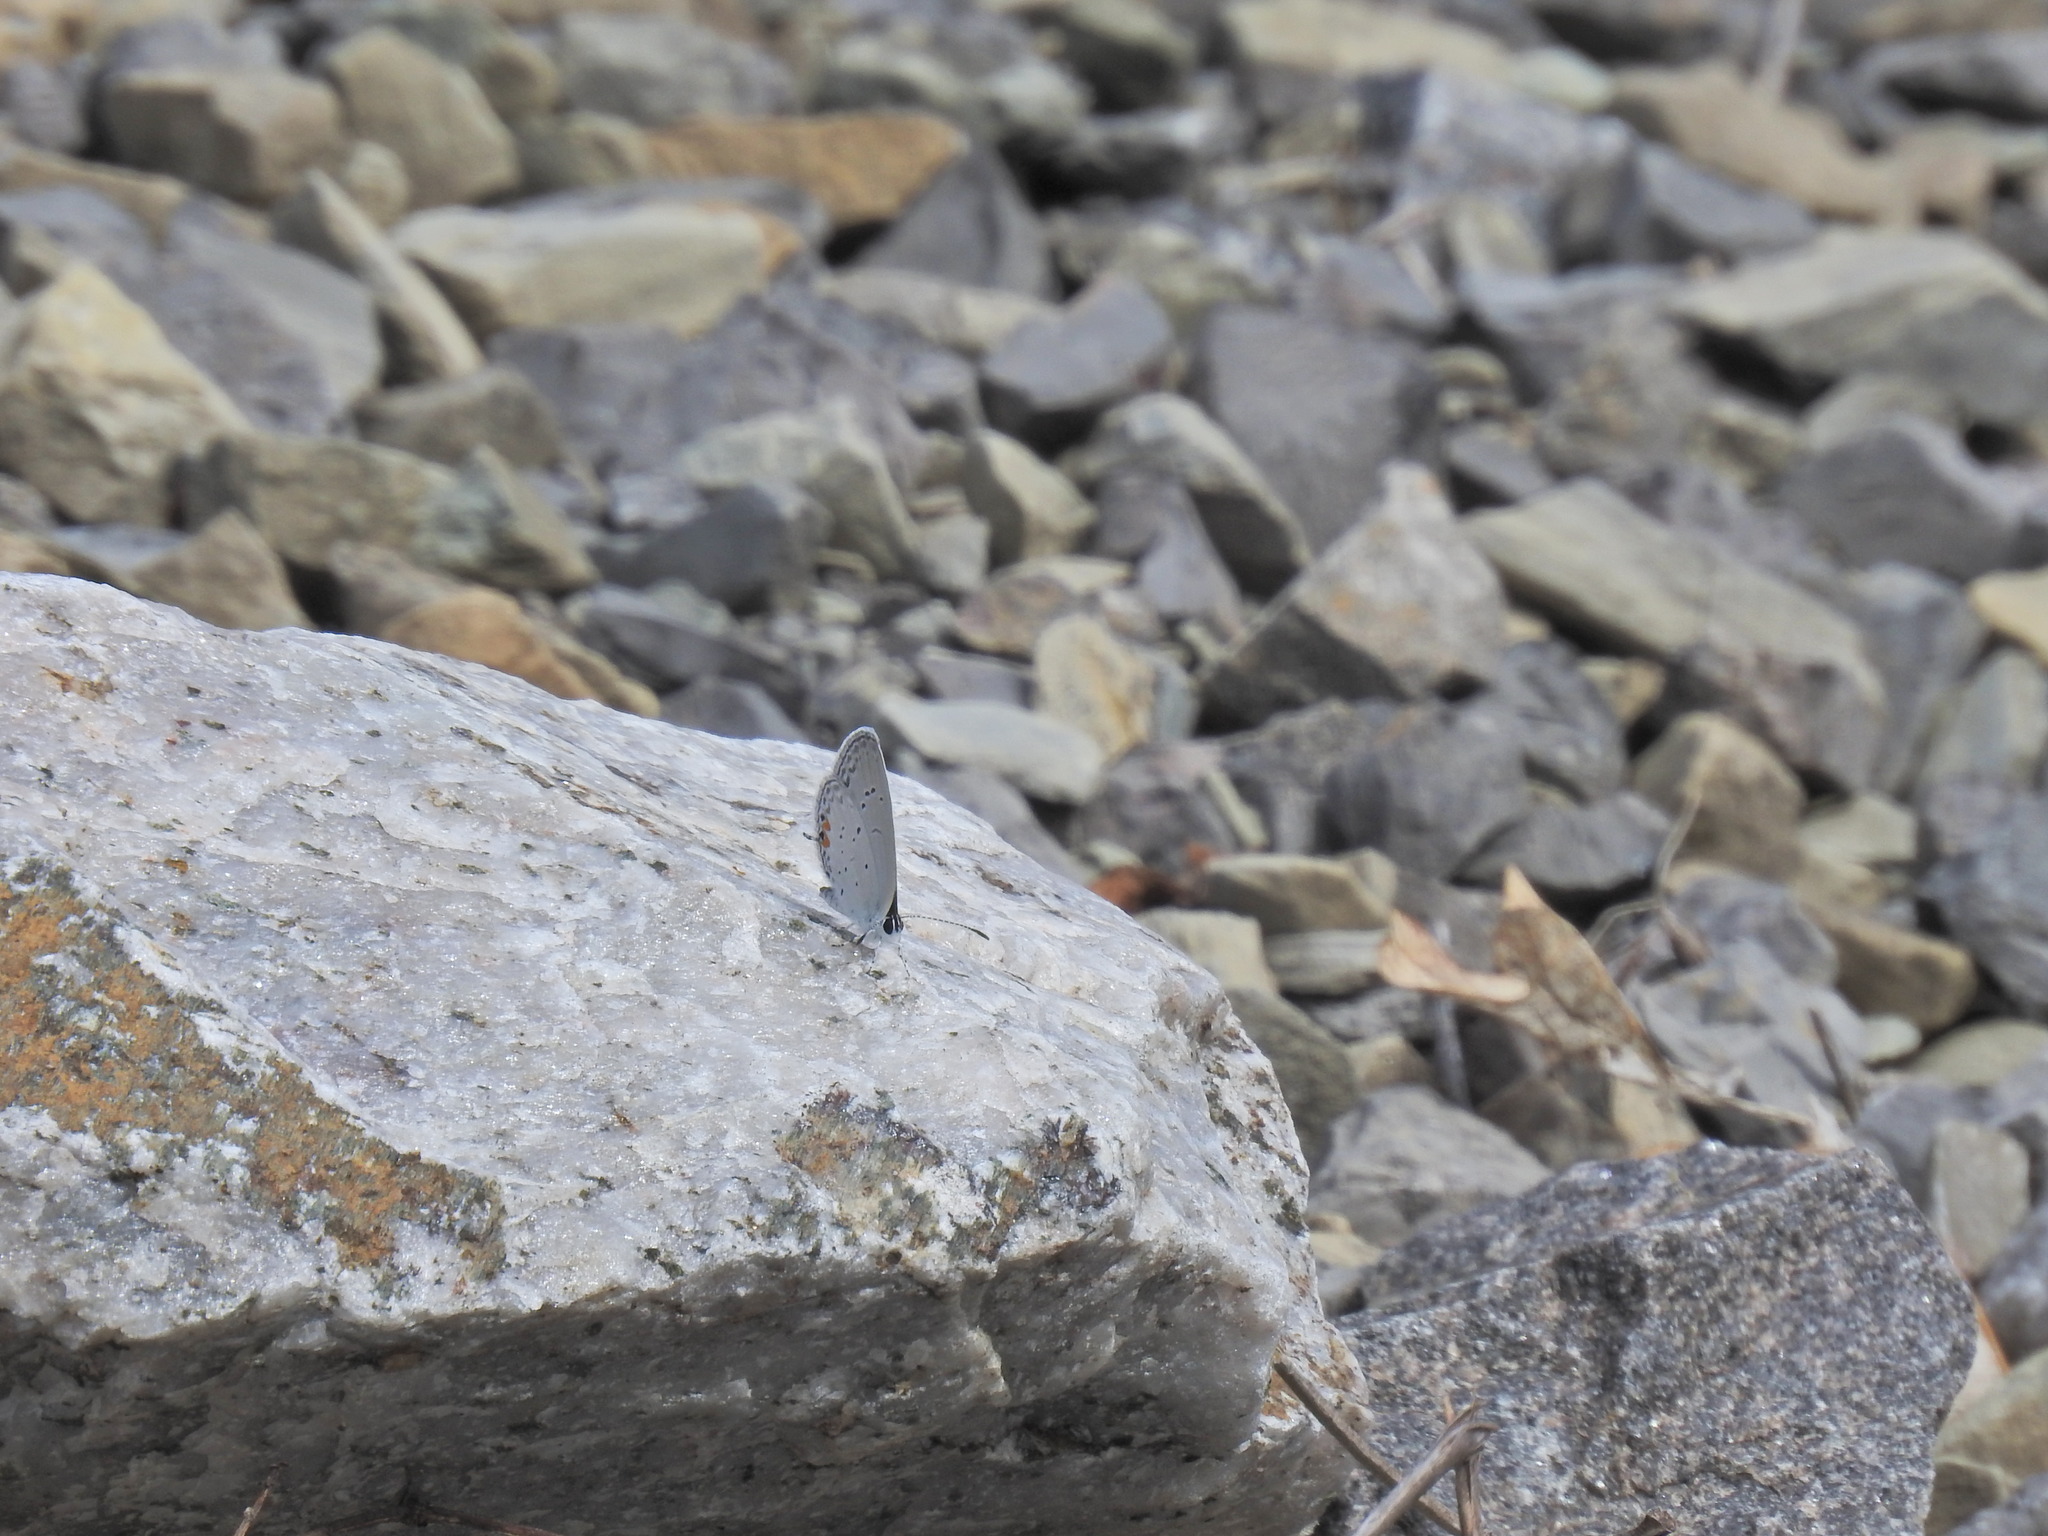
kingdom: Animalia
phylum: Arthropoda
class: Insecta
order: Lepidoptera
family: Lycaenidae
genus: Elkalyce
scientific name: Elkalyce comyntas
